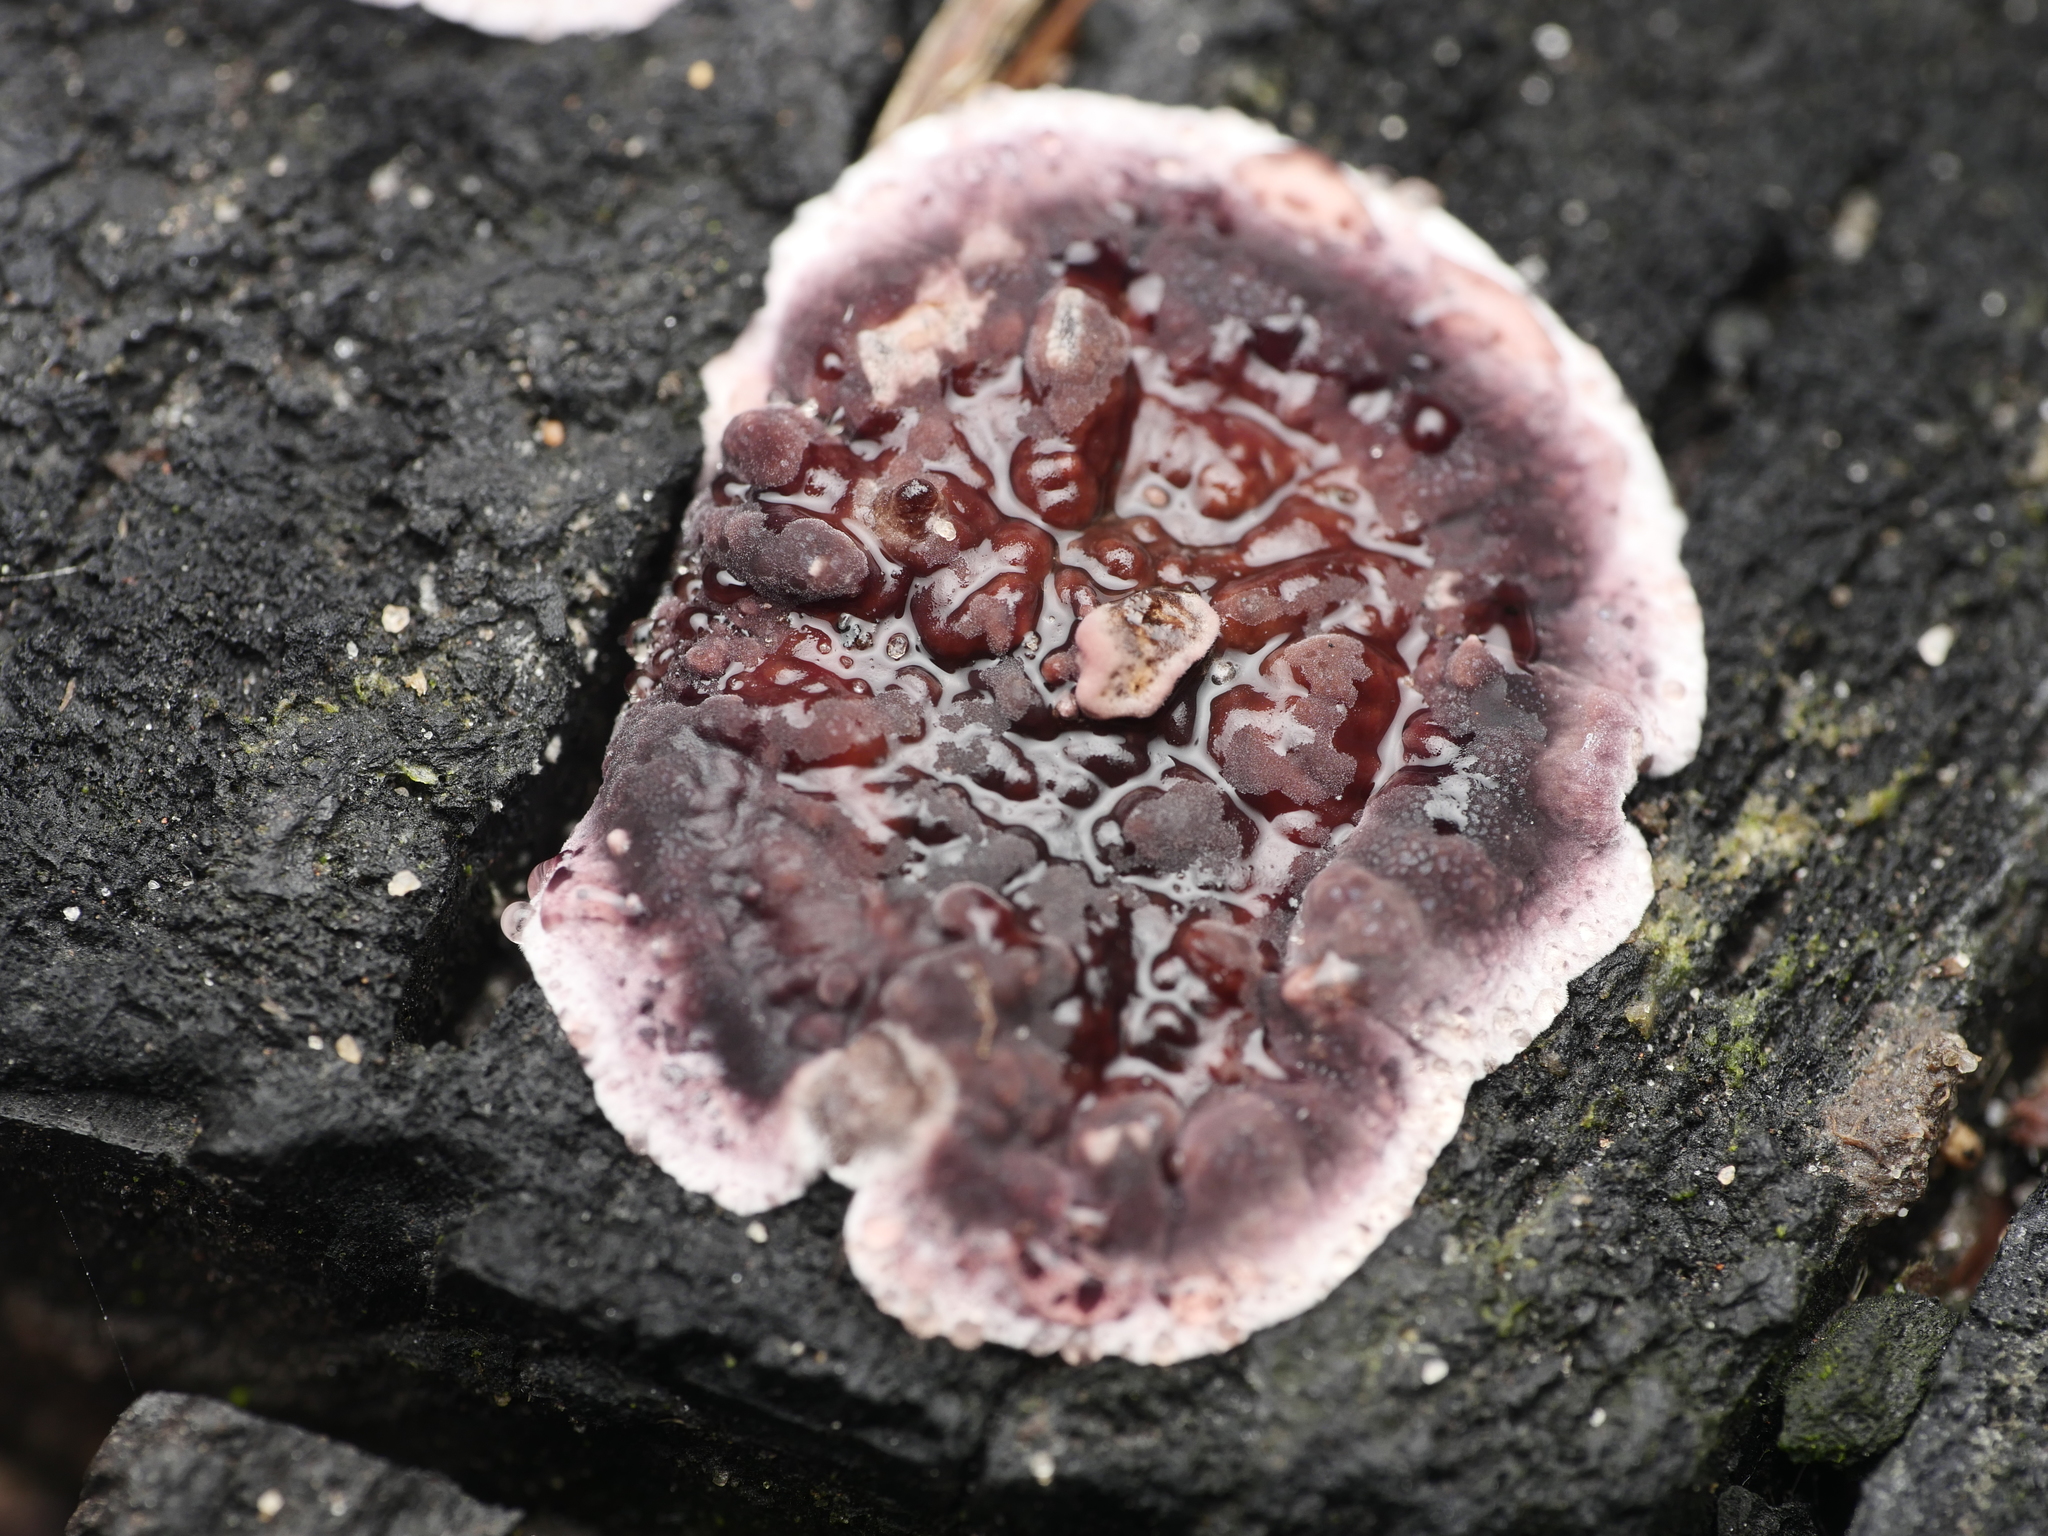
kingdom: Fungi
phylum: Basidiomycota
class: Agaricomycetes
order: Agaricales
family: Cyphellaceae
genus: Chondrostereum
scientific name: Chondrostereum purpureum
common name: Silver leaf disease
